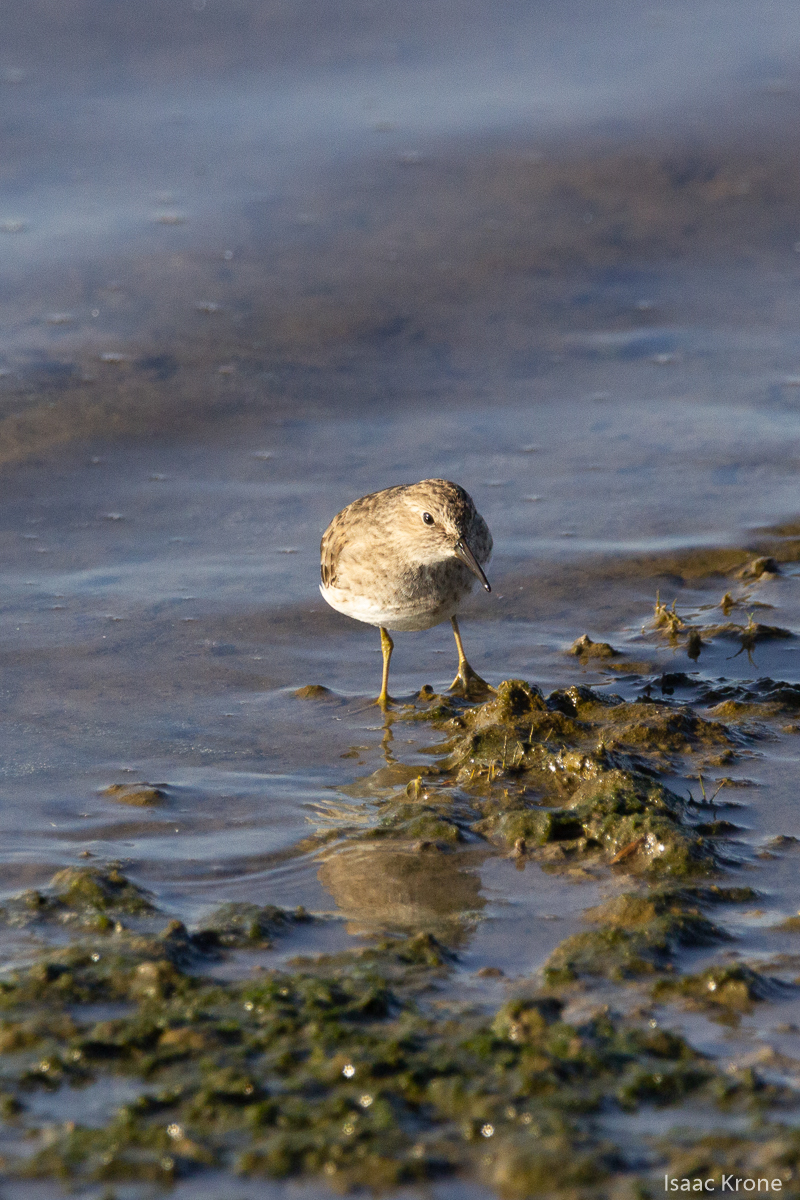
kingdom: Animalia
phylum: Chordata
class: Aves
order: Charadriiformes
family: Scolopacidae
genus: Calidris
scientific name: Calidris minutilla
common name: Least sandpiper
